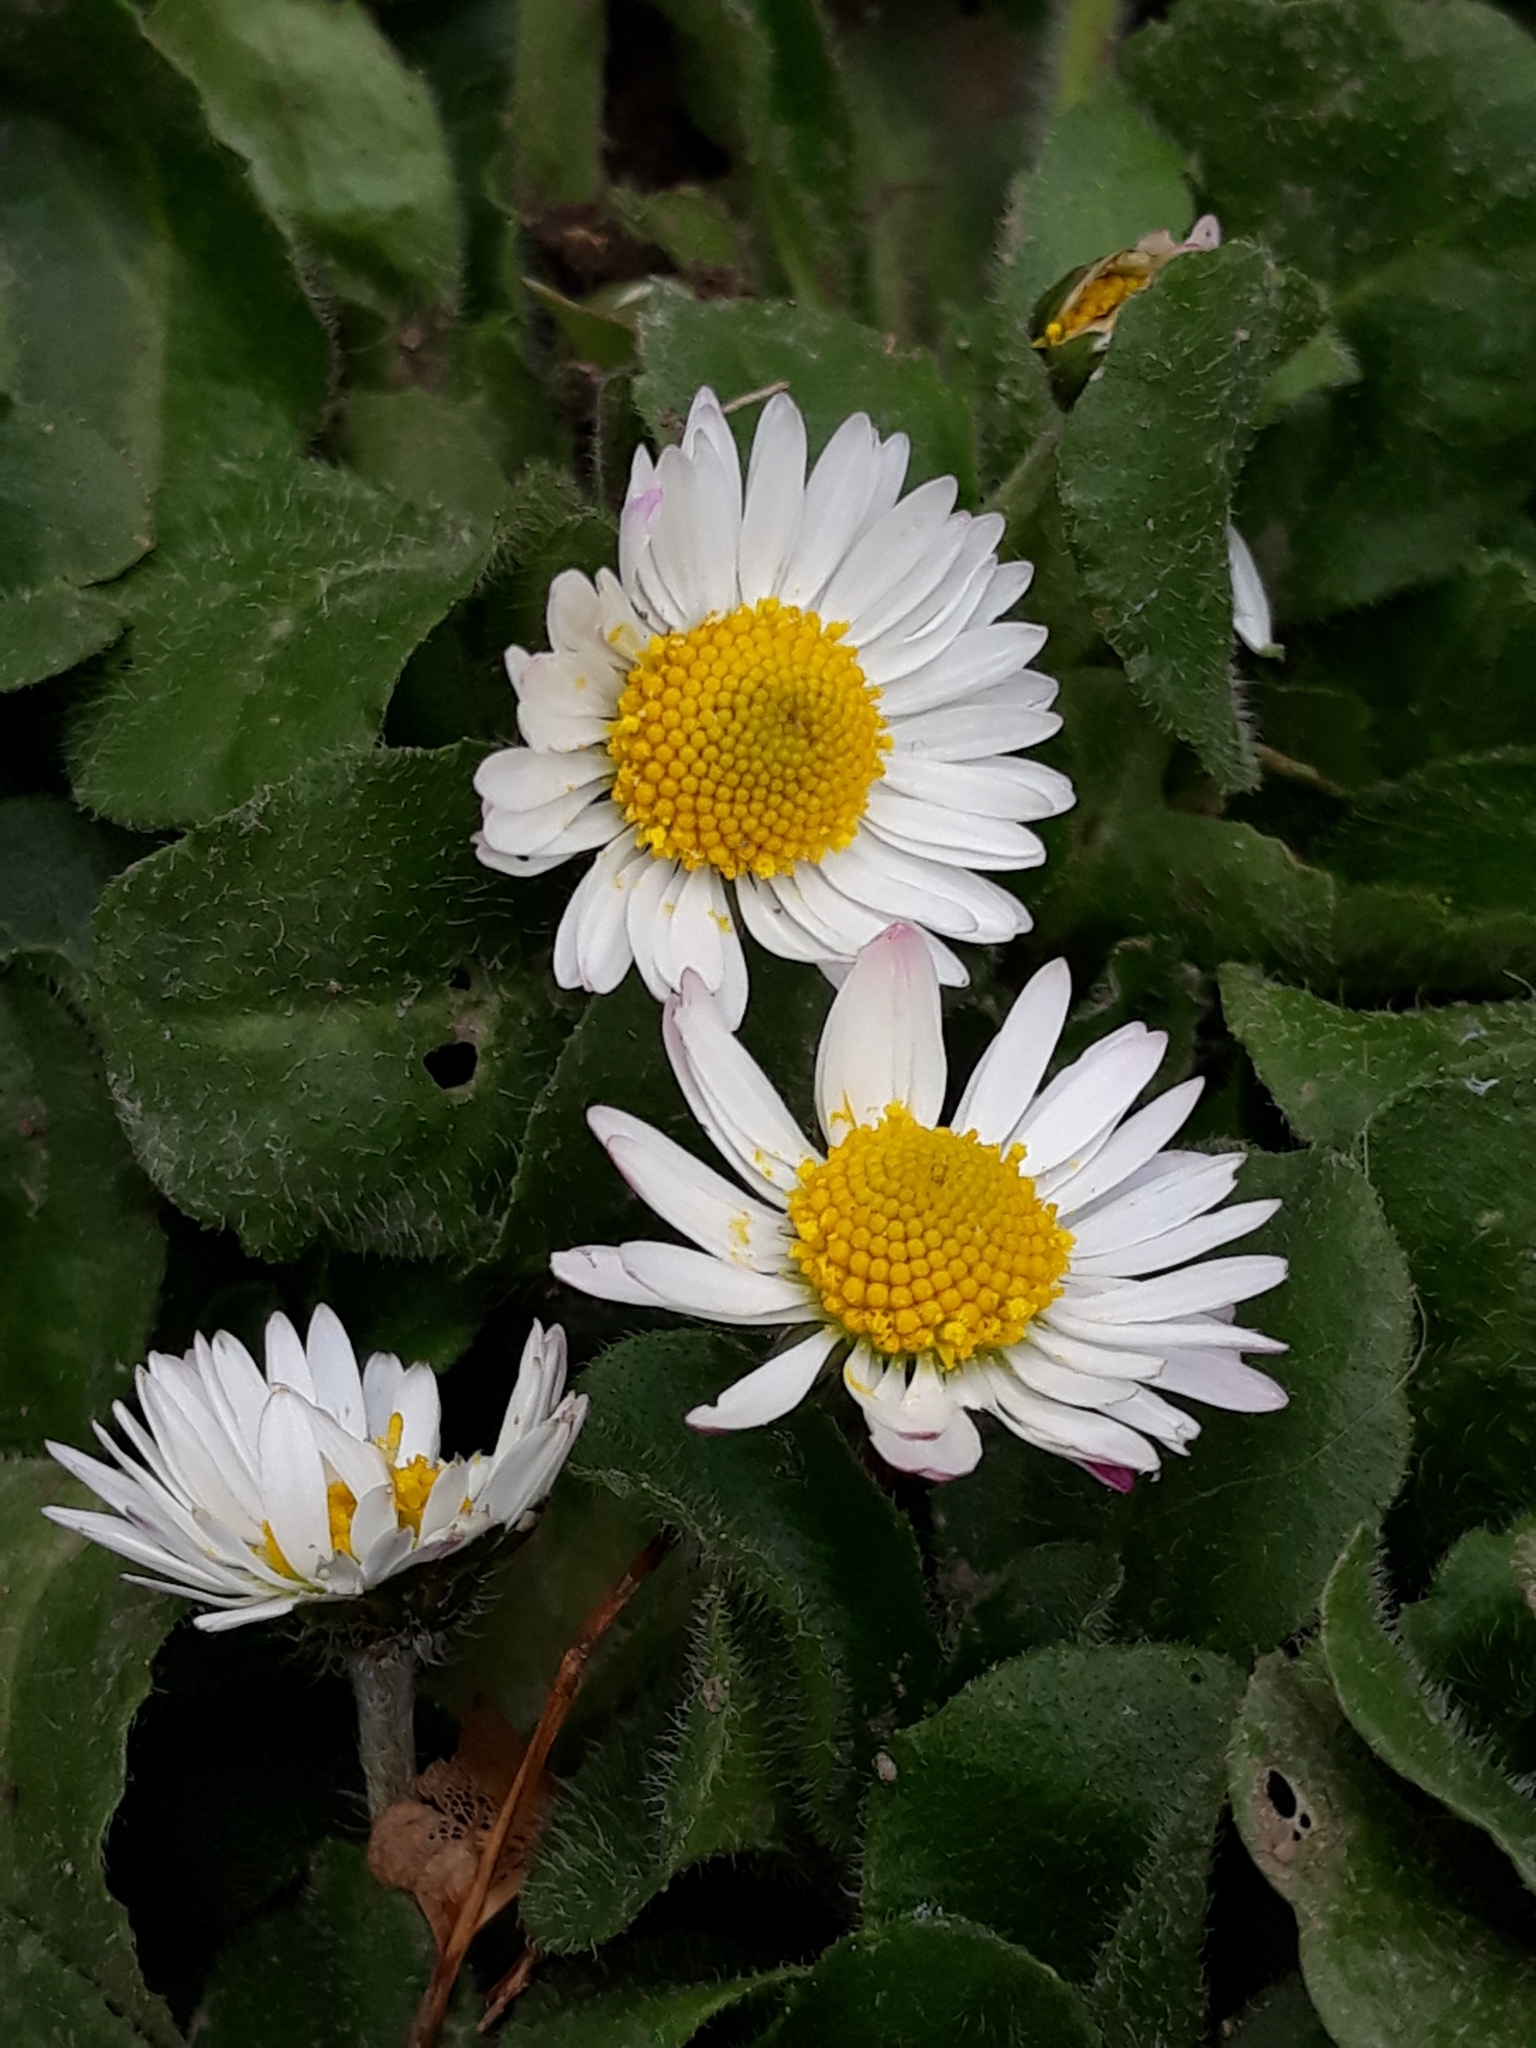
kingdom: Plantae
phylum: Tracheophyta
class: Magnoliopsida
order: Asterales
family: Asteraceae
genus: Bellis
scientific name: Bellis perennis
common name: Lawndaisy
